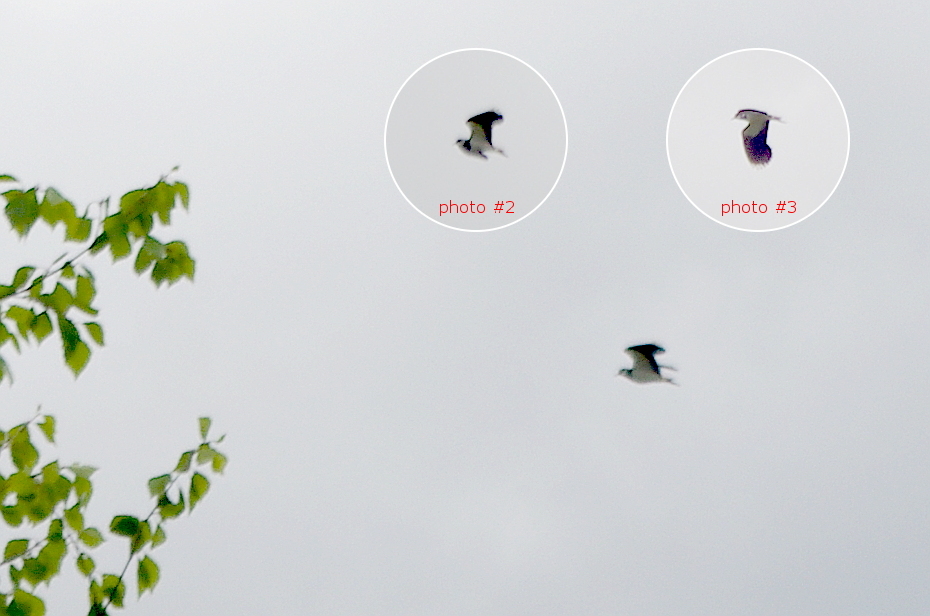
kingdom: Animalia
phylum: Chordata
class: Aves
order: Charadriiformes
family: Charadriidae
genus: Vanellus
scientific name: Vanellus vanellus
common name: Northern lapwing
